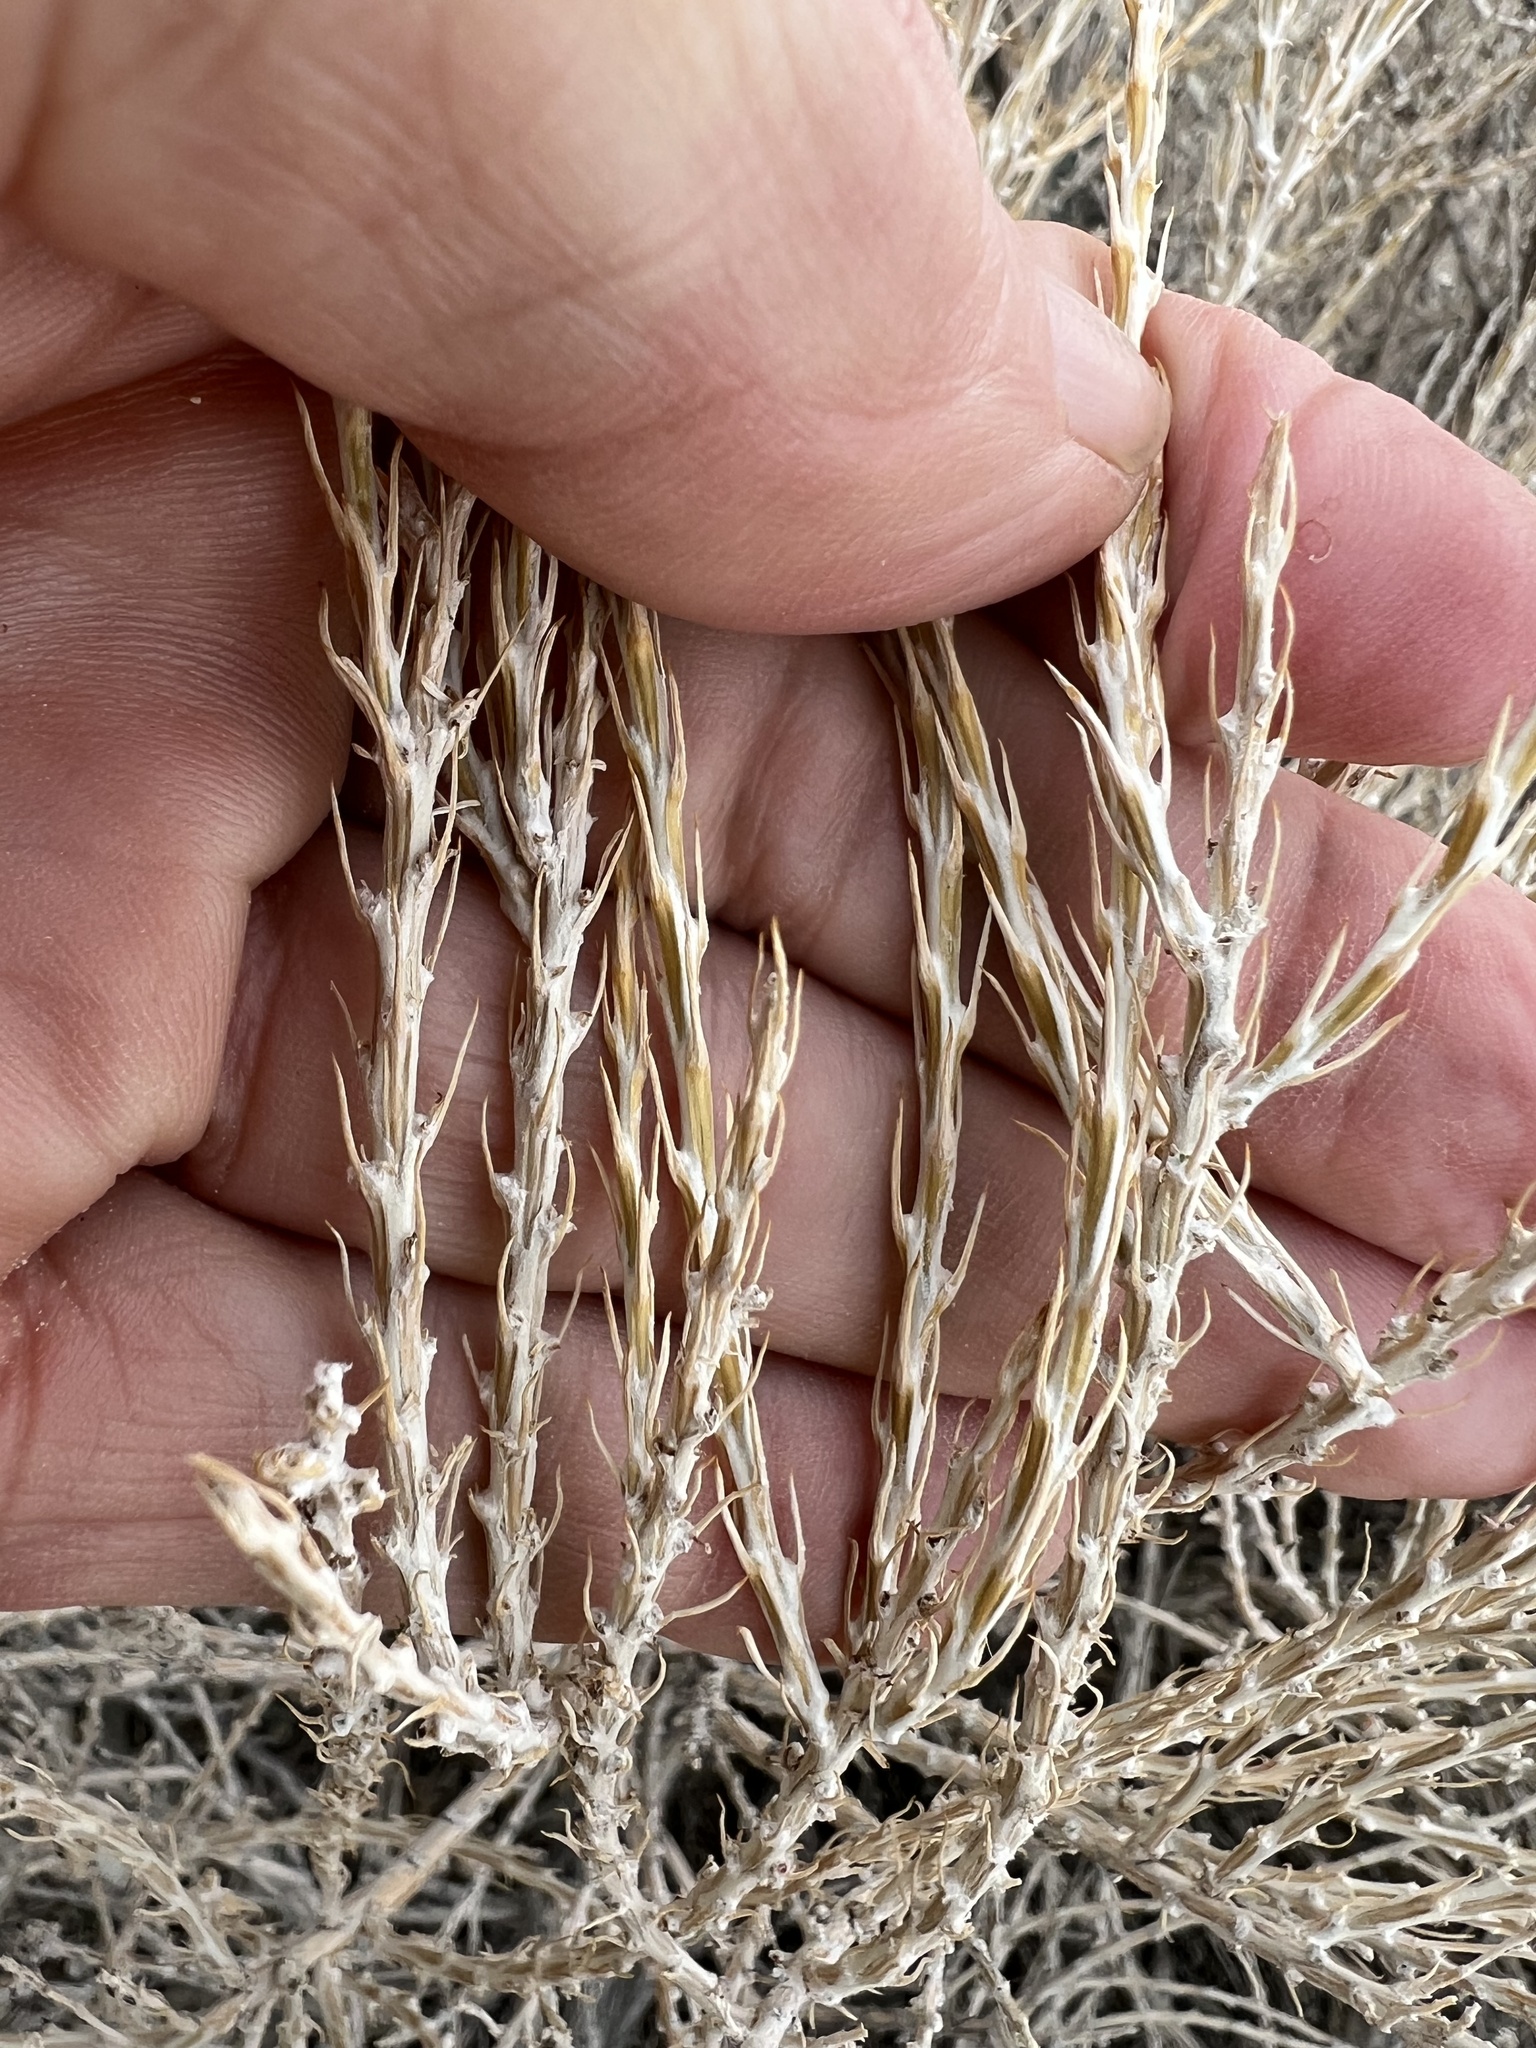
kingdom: Plantae
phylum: Tracheophyta
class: Magnoliopsida
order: Asterales
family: Asteraceae
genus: Tetradymia
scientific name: Tetradymia glabrata
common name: Smooth tetradymia
